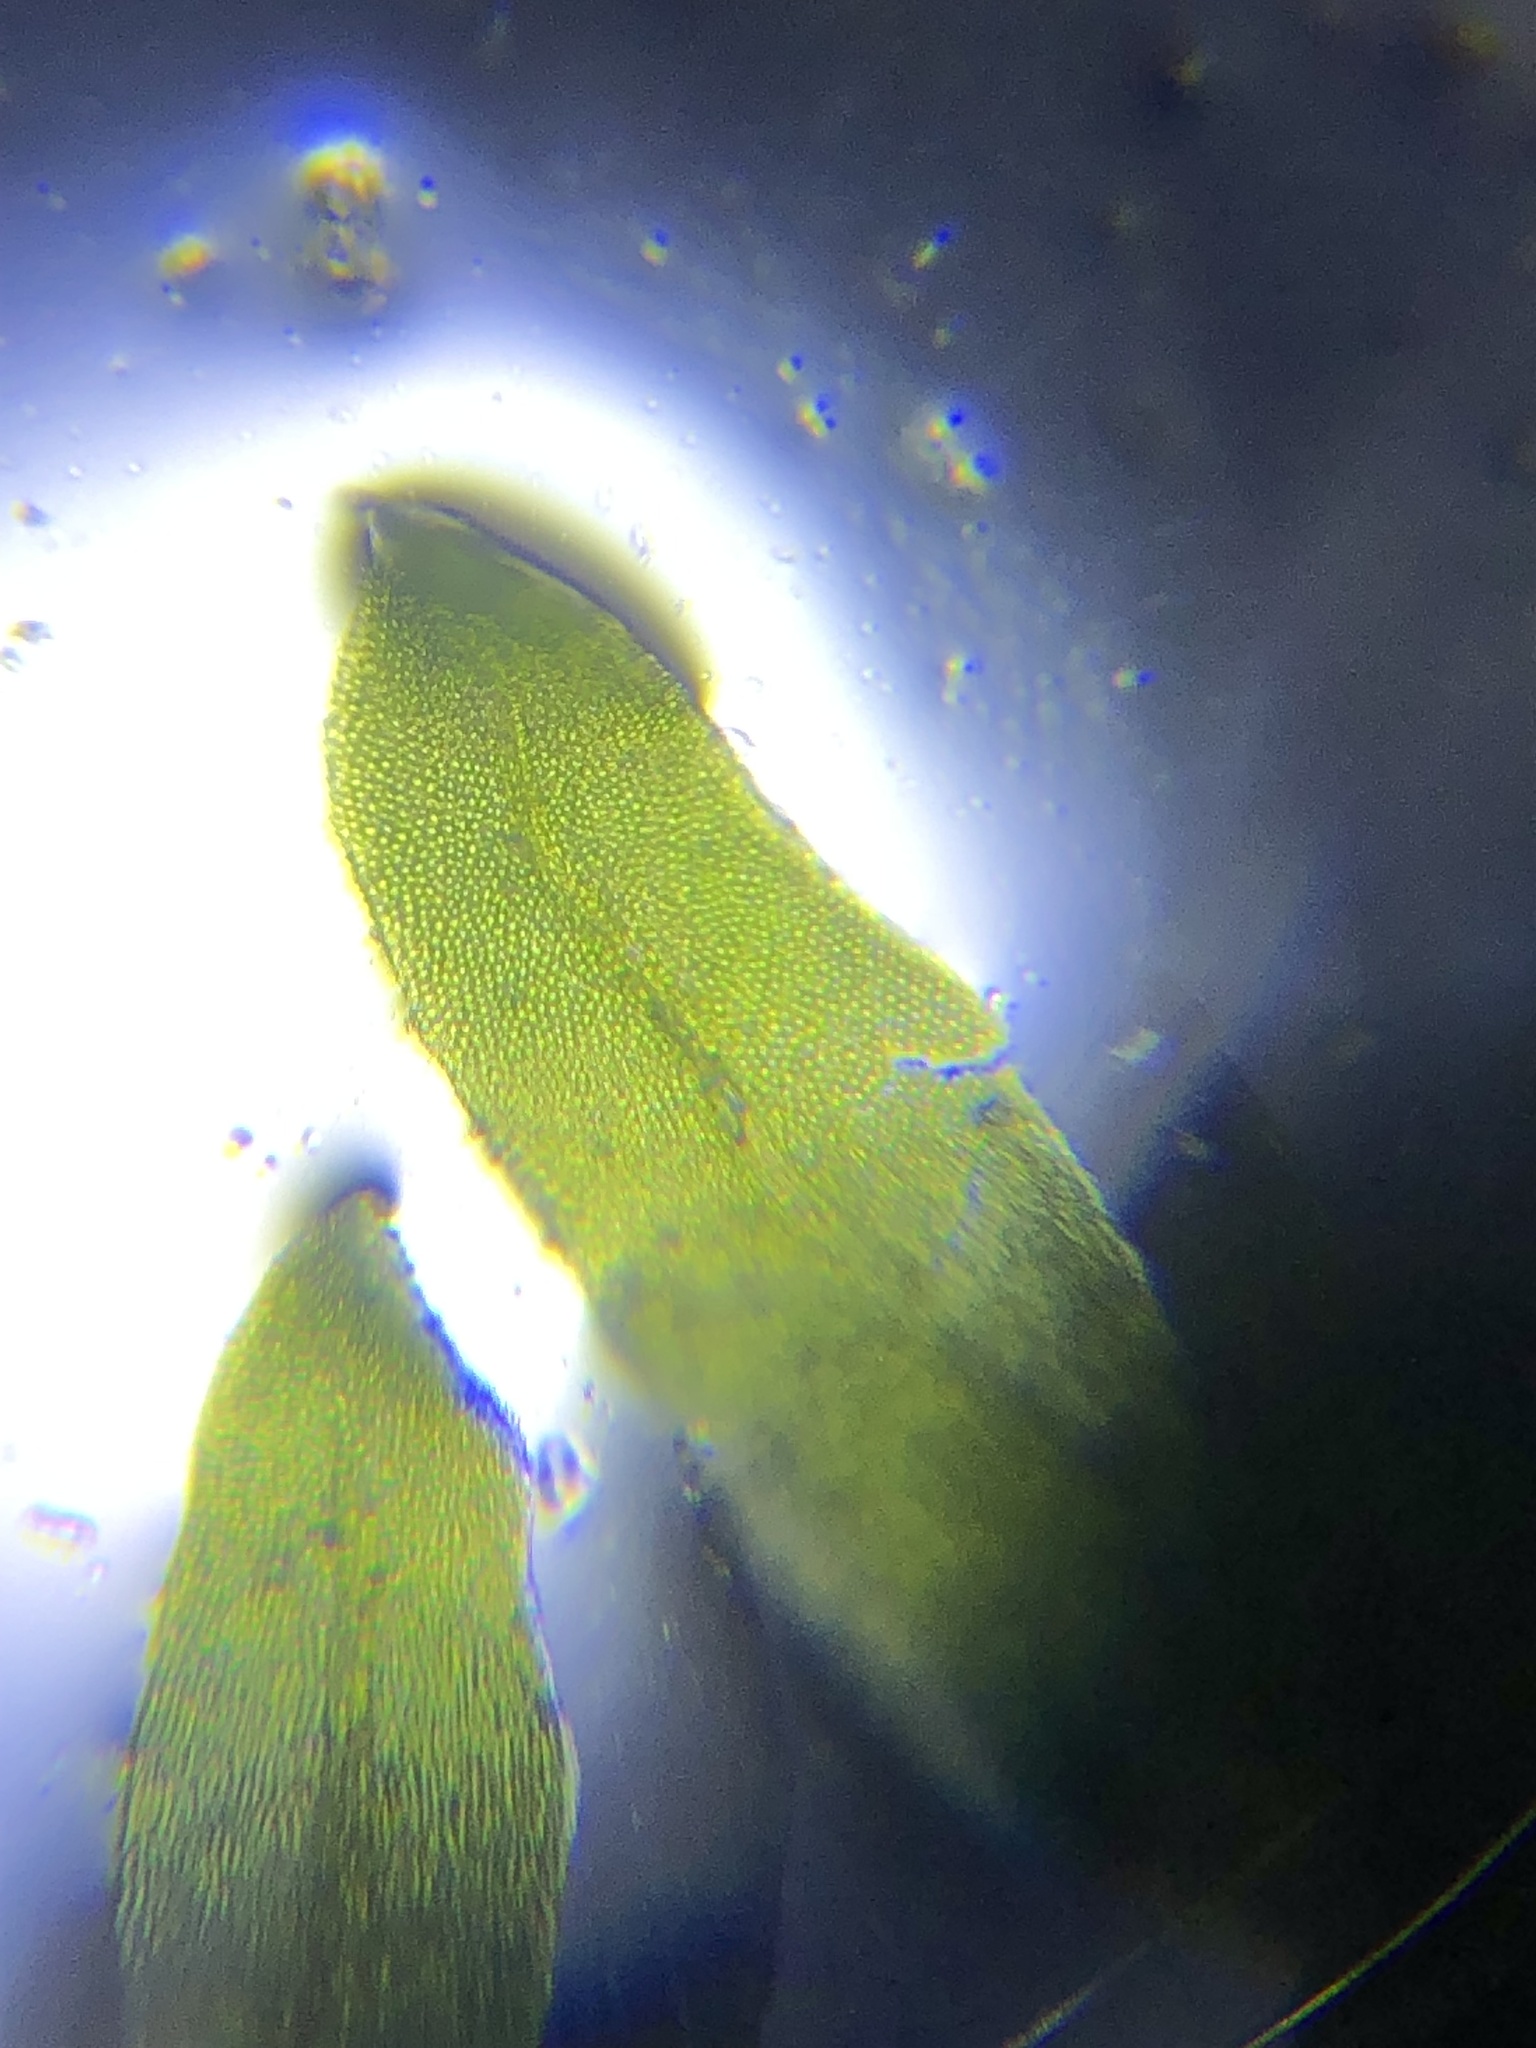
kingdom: Plantae
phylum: Bryophyta
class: Bryopsida
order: Dicranales
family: Fissidentaceae
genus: Fissidens
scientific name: Fissidens subbasilaris
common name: Tree pocket moss
